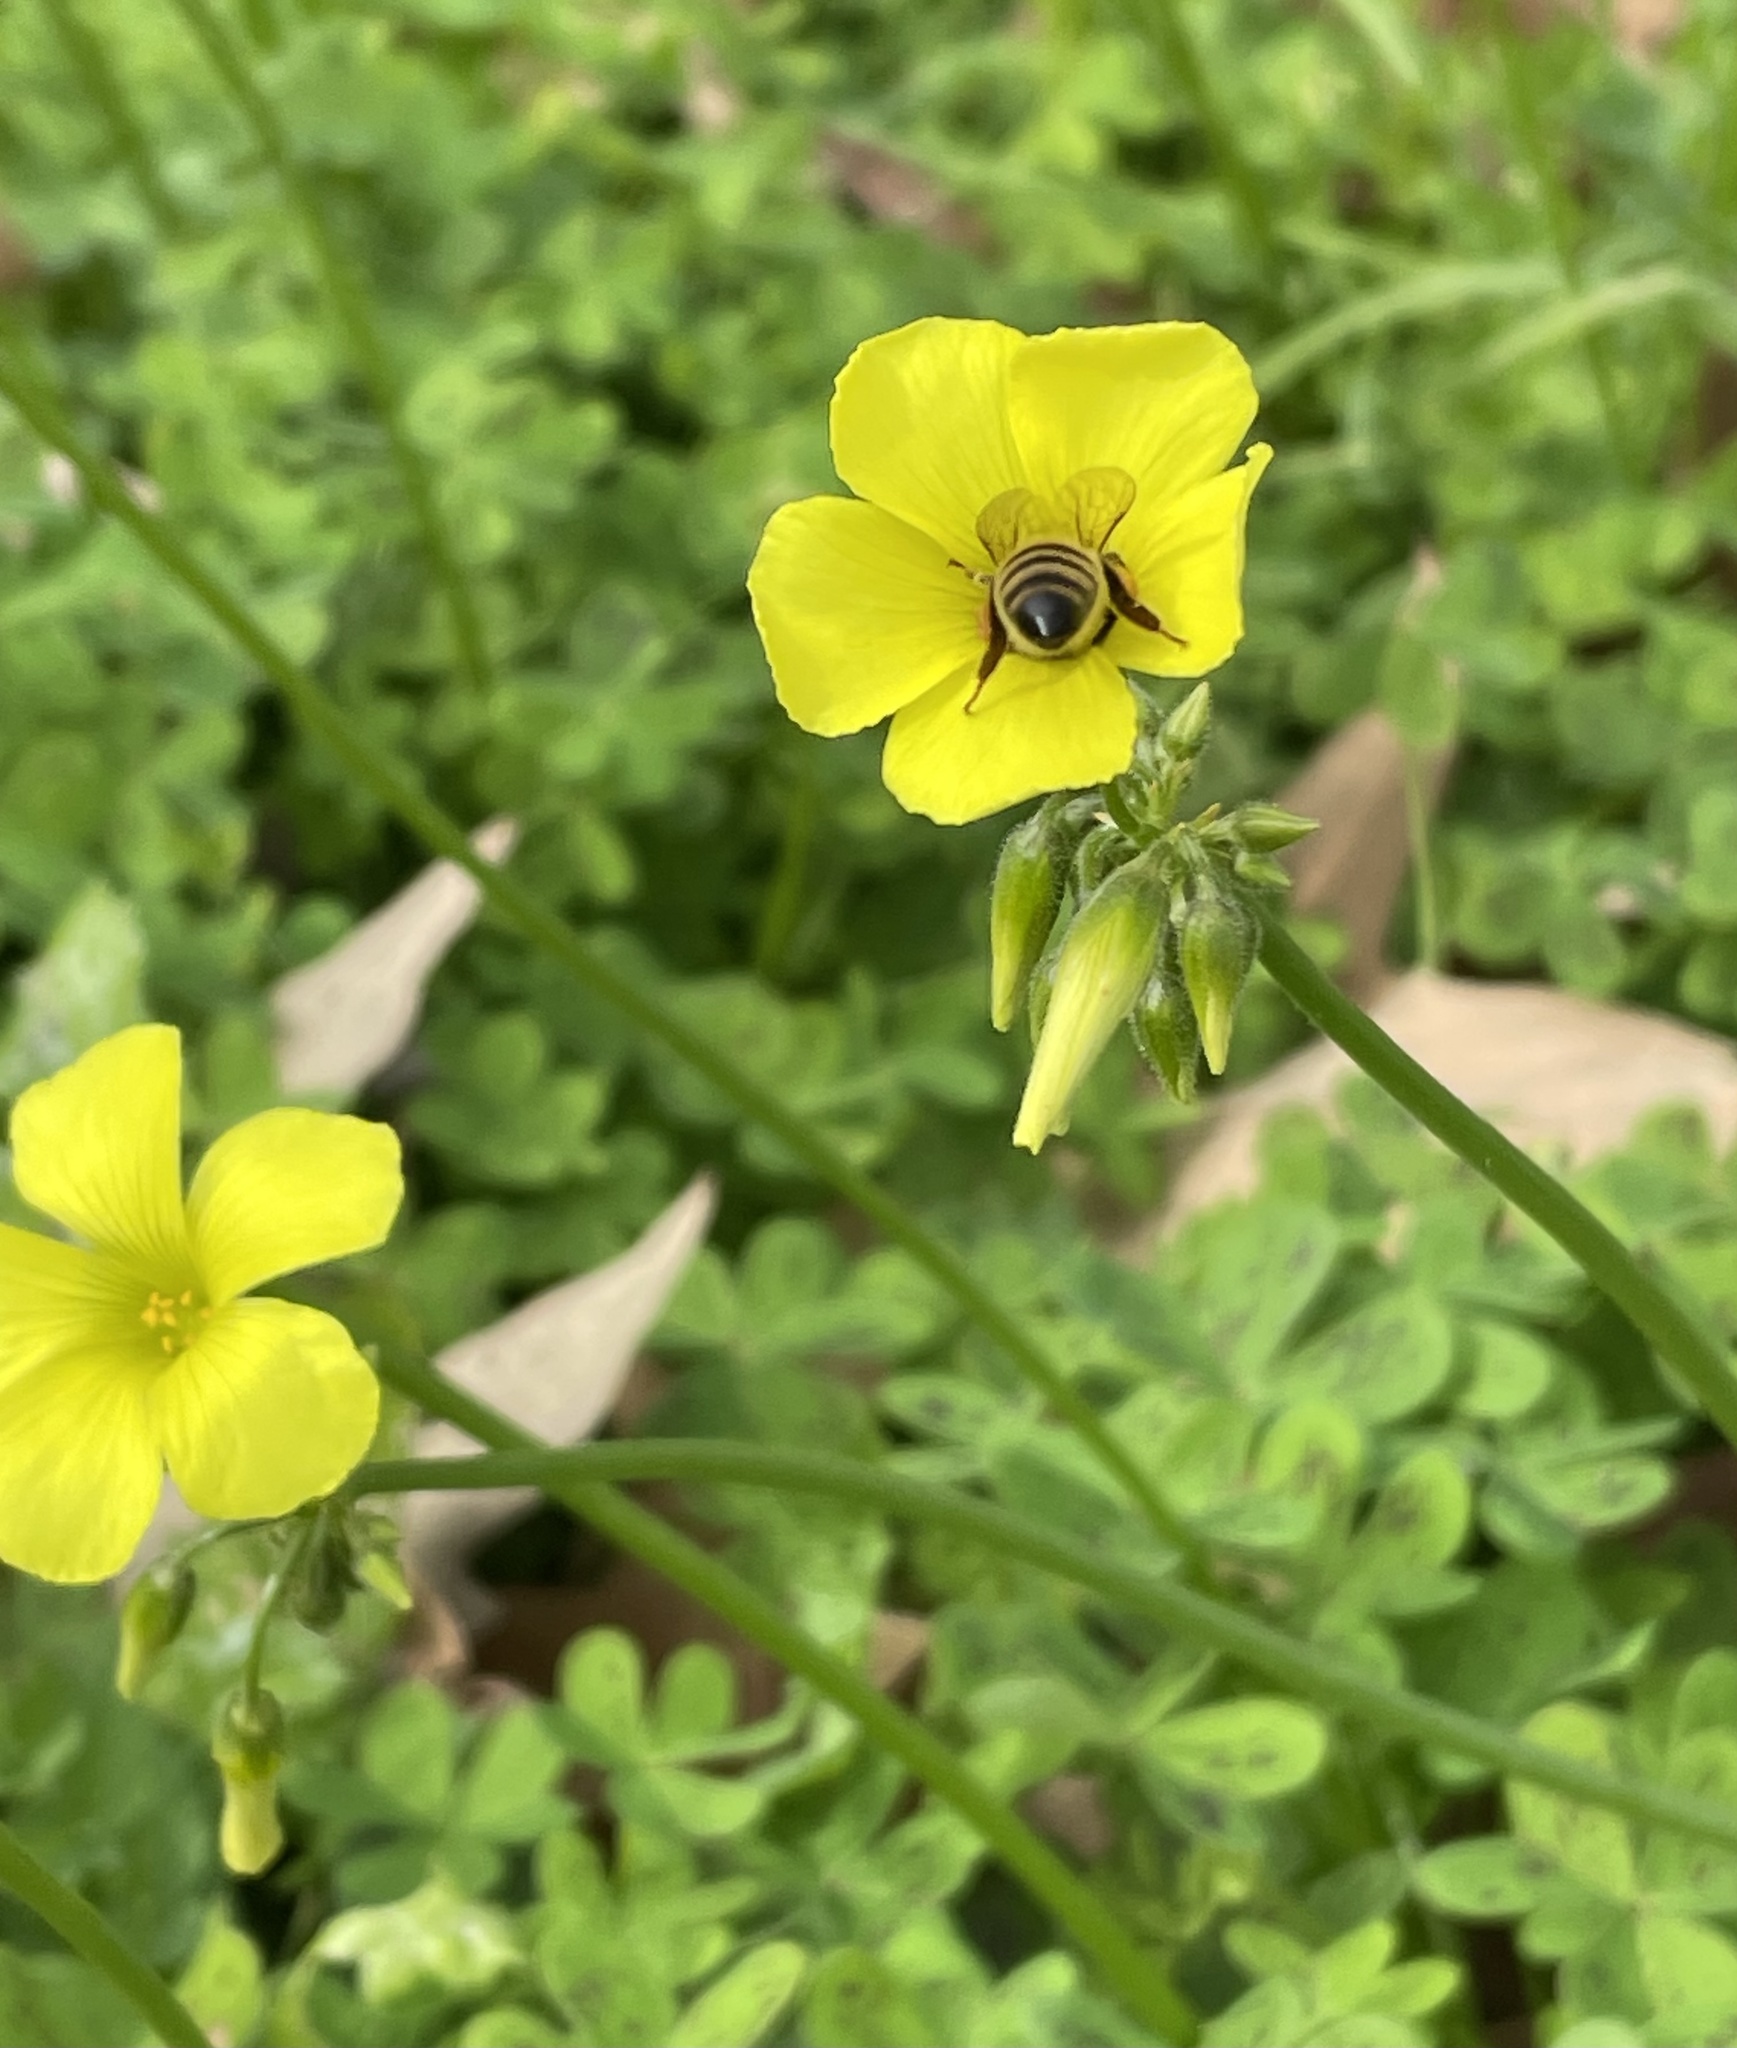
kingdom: Plantae
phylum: Tracheophyta
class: Magnoliopsida
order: Oxalidales
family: Oxalidaceae
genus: Oxalis
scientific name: Oxalis pes-caprae
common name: Bermuda-buttercup
